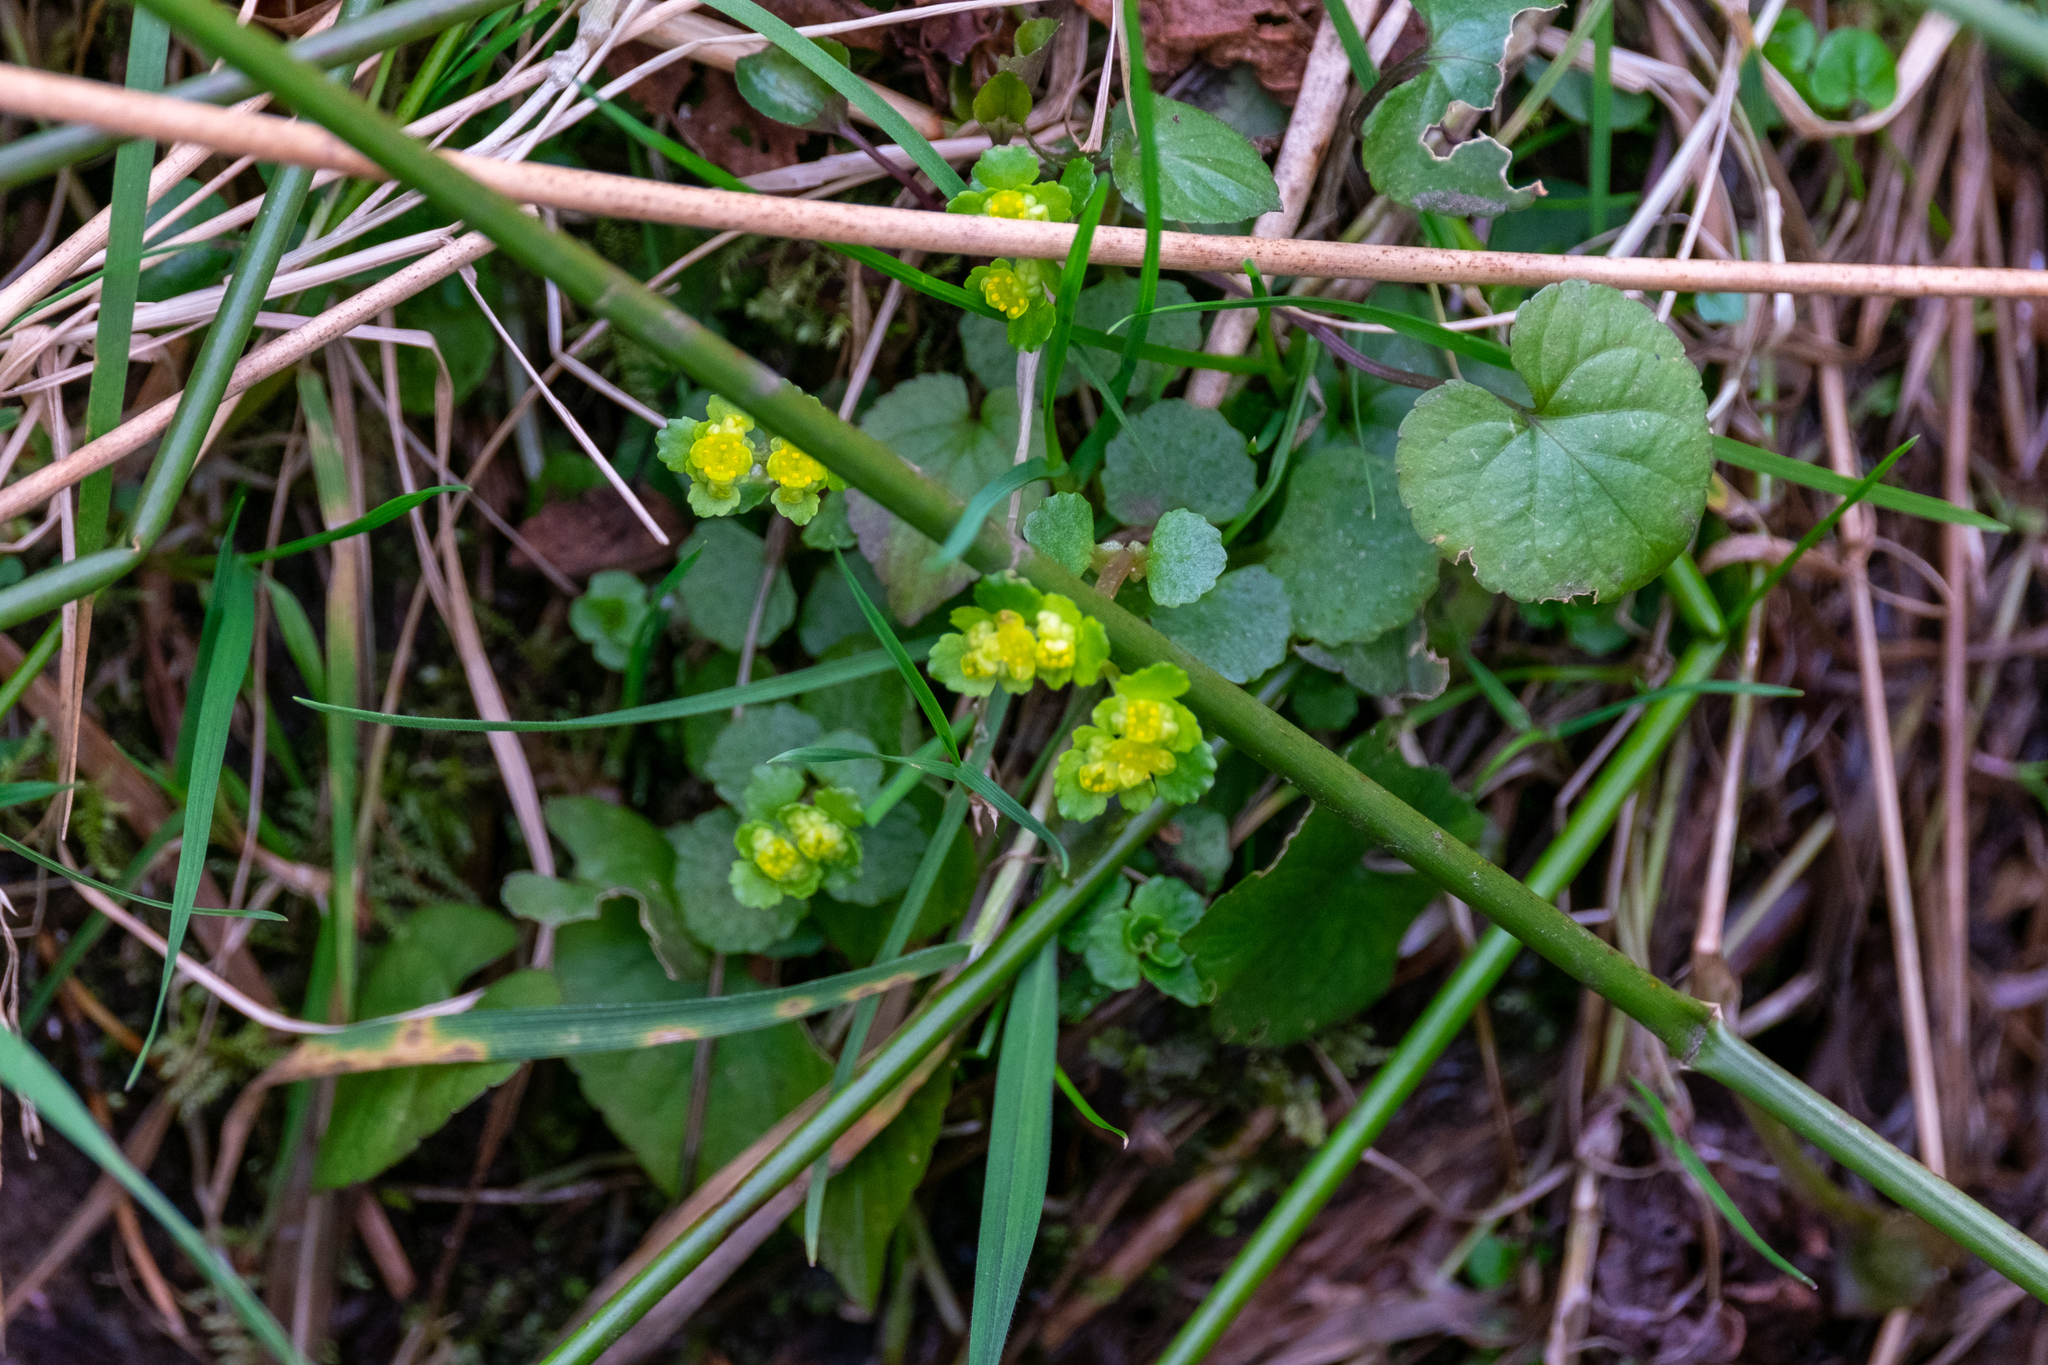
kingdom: Plantae
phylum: Tracheophyta
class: Magnoliopsida
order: Saxifragales
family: Saxifragaceae
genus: Chrysosplenium
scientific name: Chrysosplenium oppositifolium
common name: Opposite-leaved golden-saxifrage
